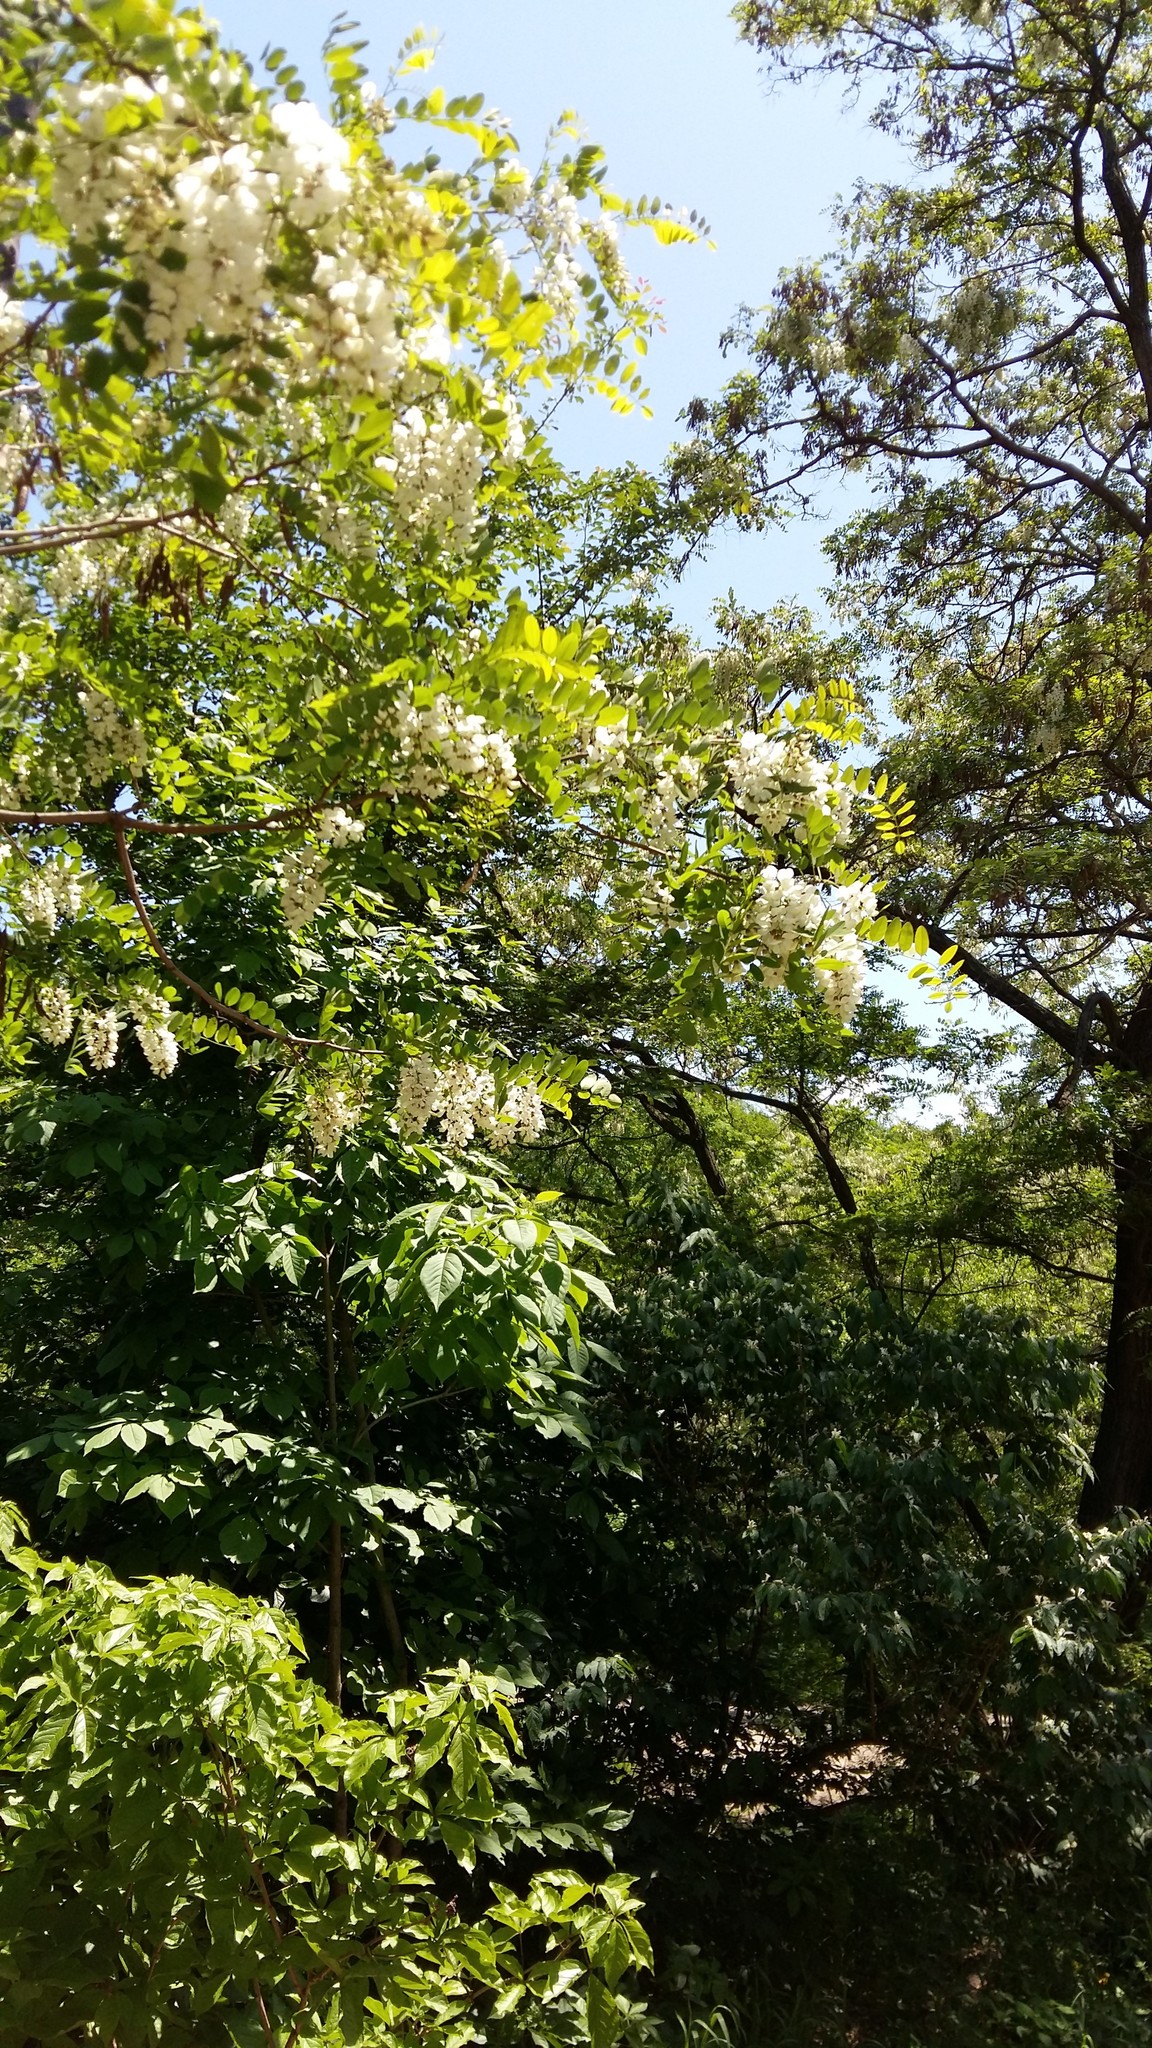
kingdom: Plantae
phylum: Tracheophyta
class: Magnoliopsida
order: Fabales
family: Fabaceae
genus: Robinia
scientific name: Robinia pseudoacacia
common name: Black locust
